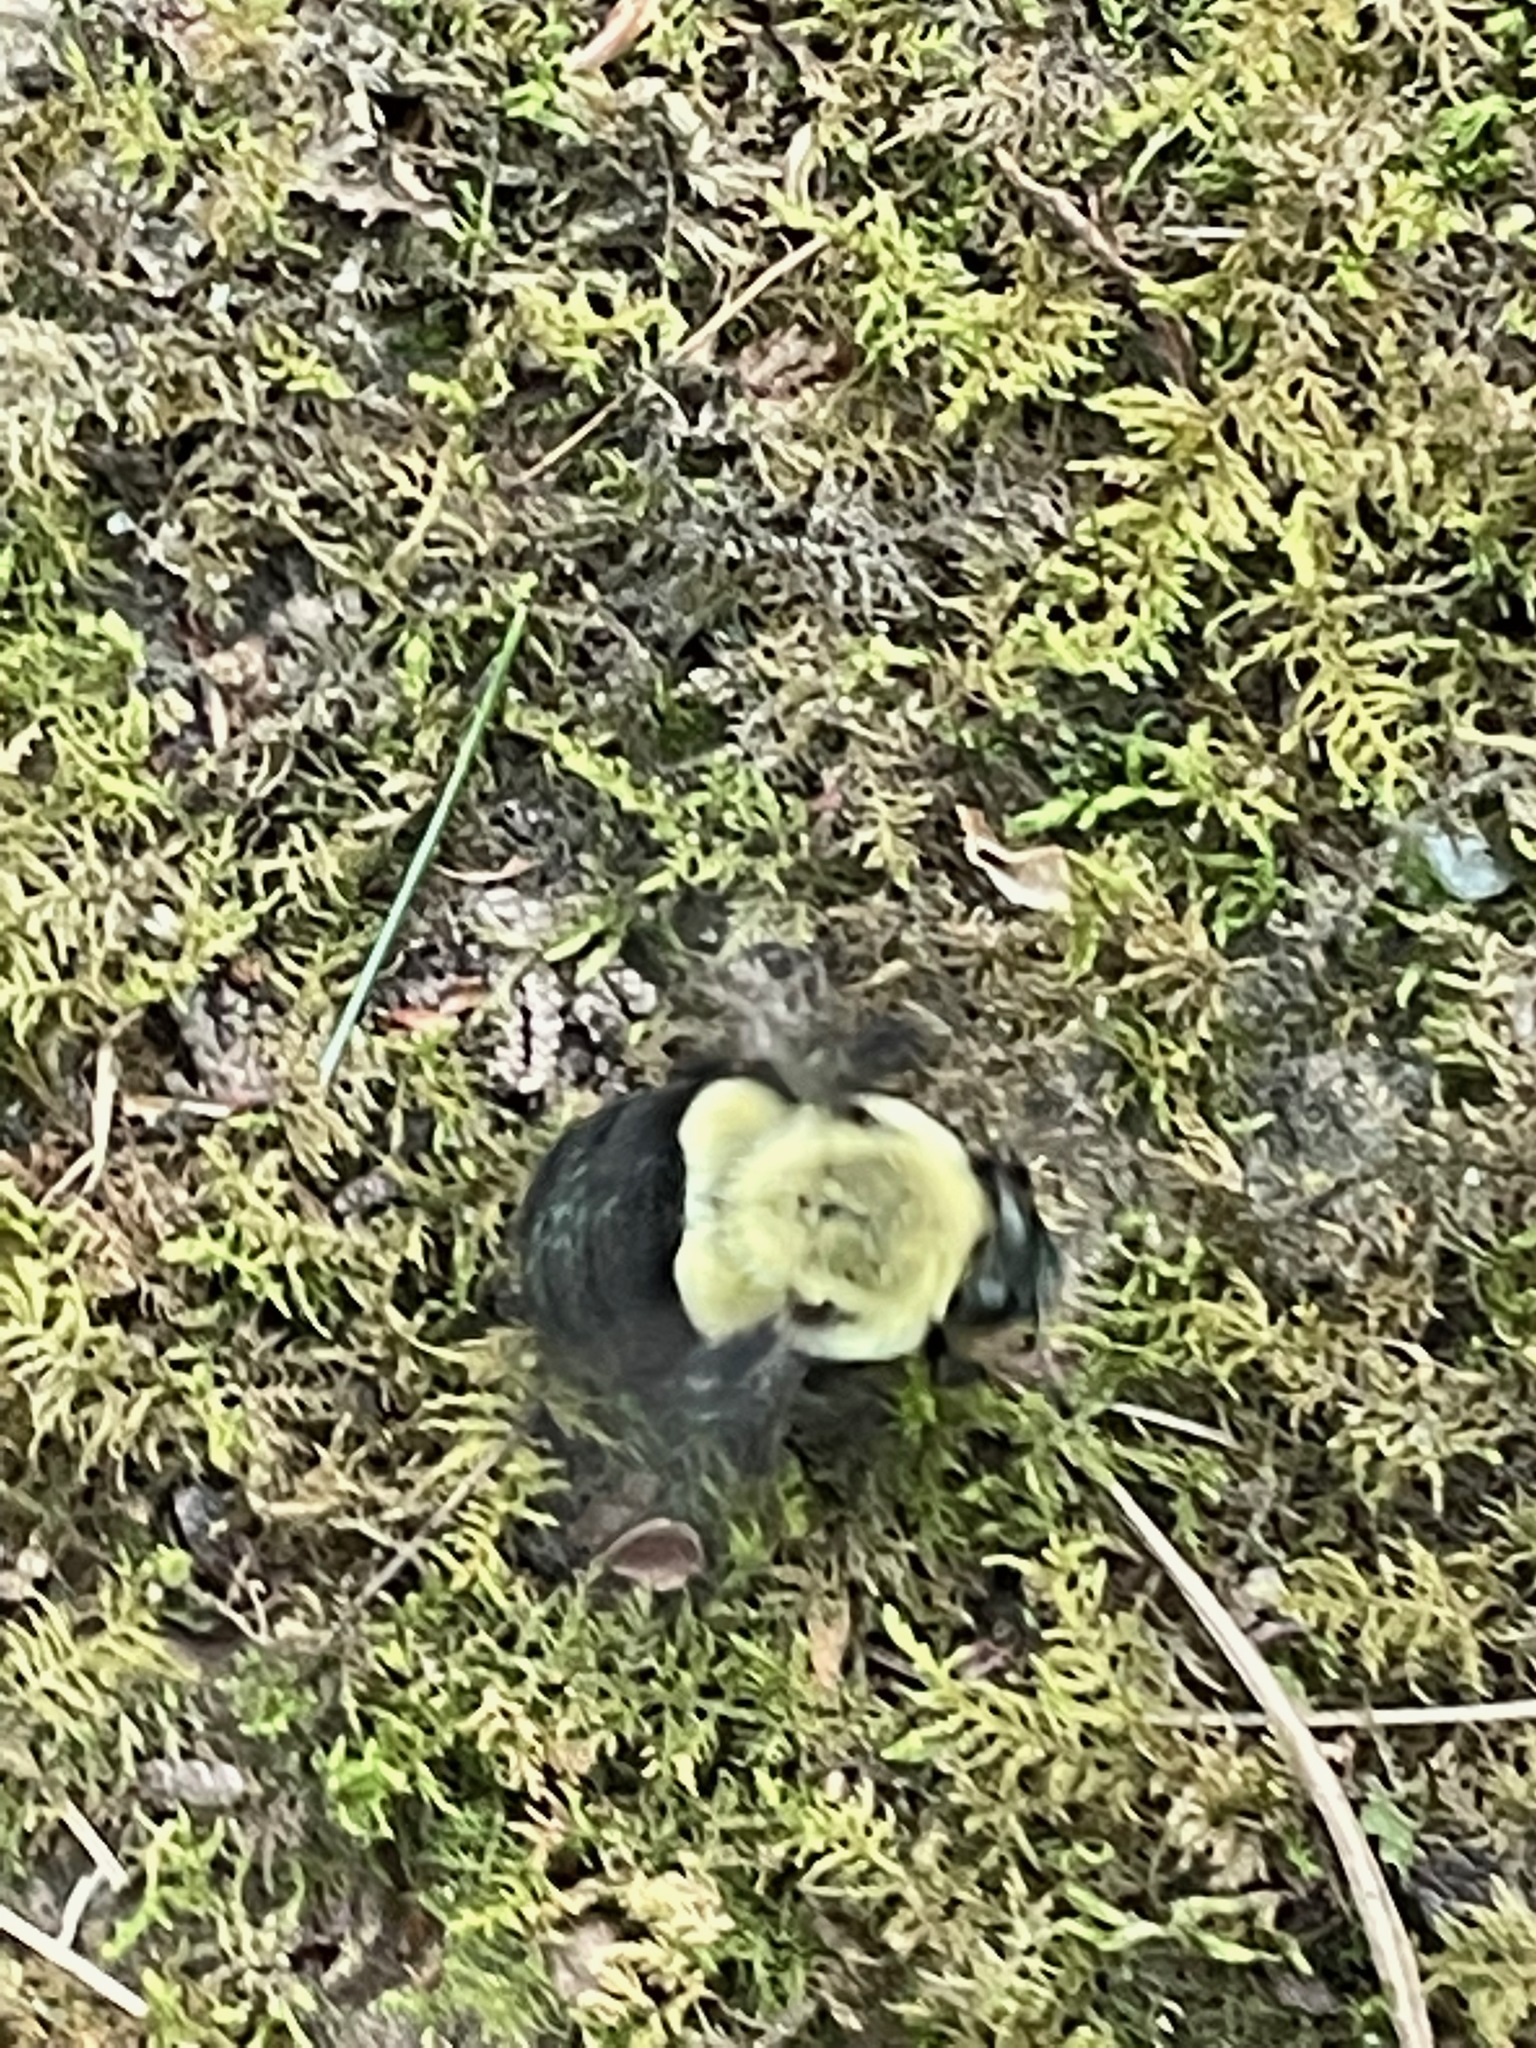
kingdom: Animalia
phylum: Arthropoda
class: Insecta
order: Hymenoptera
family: Apidae
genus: Bombus
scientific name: Bombus impatiens
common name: Common eastern bumble bee
